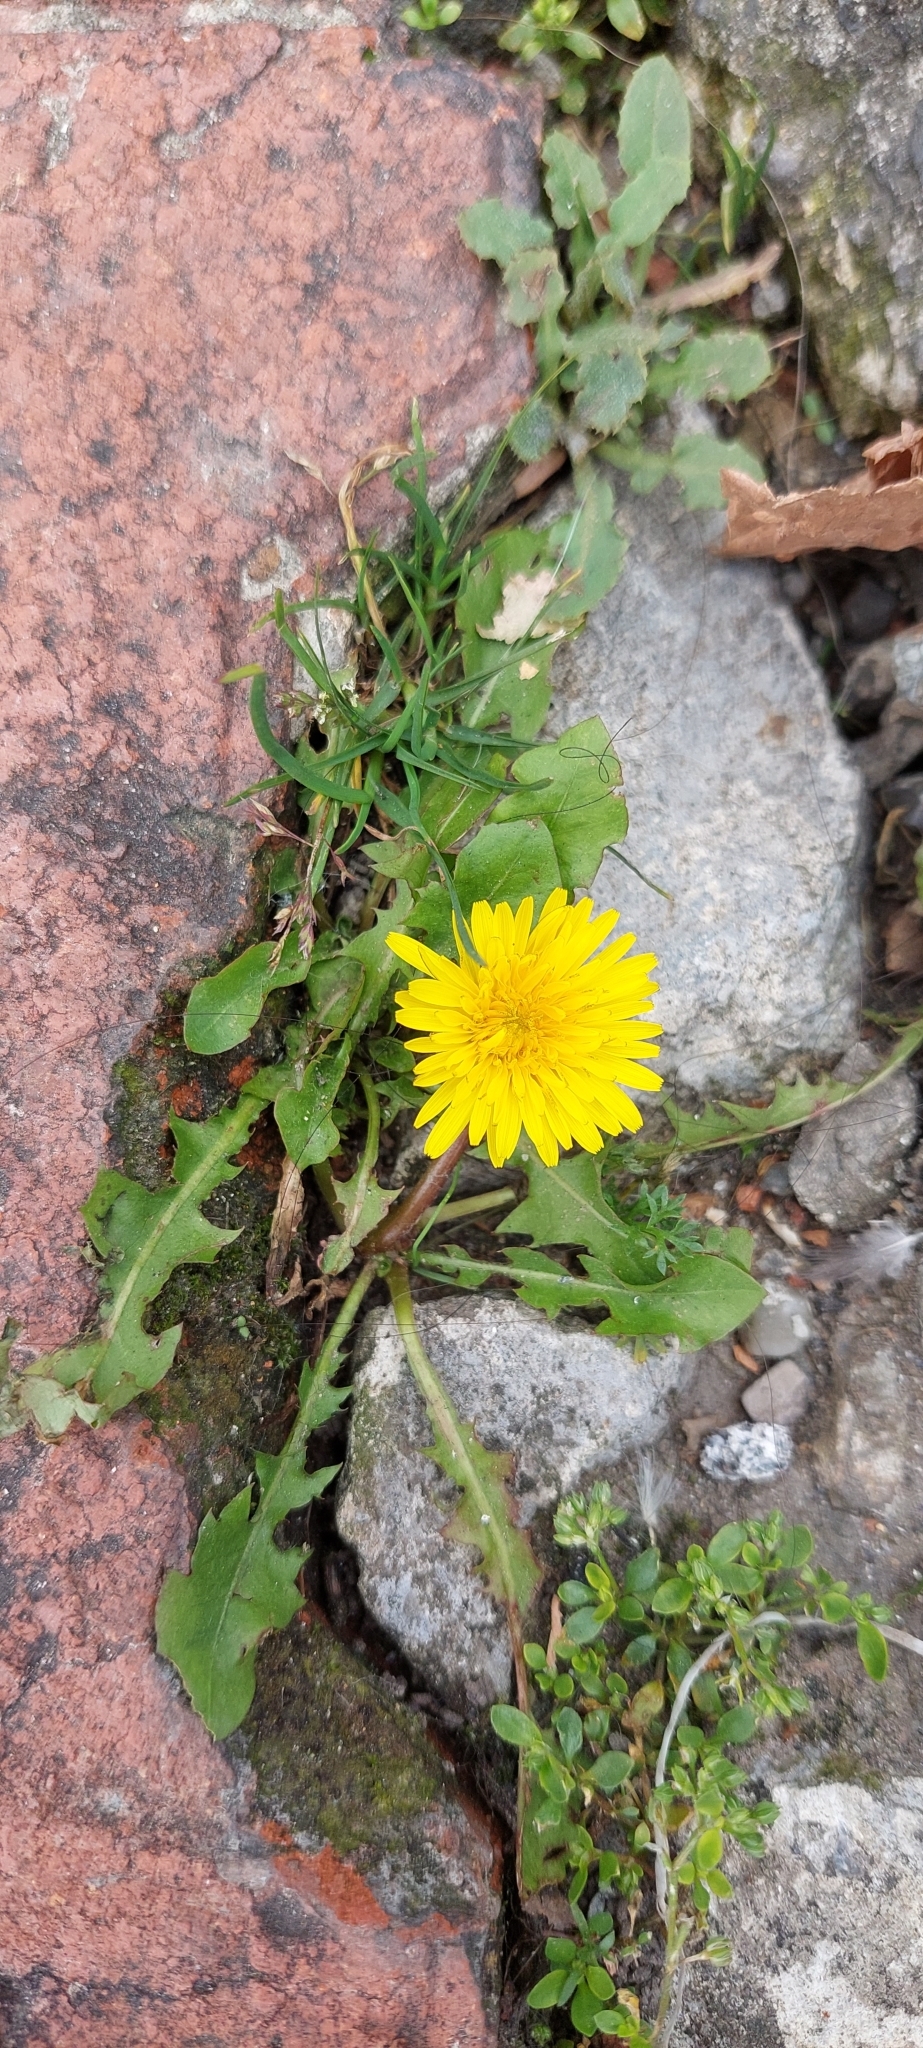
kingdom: Plantae
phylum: Tracheophyta
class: Magnoliopsida
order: Asterales
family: Asteraceae
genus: Taraxacum
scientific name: Taraxacum
